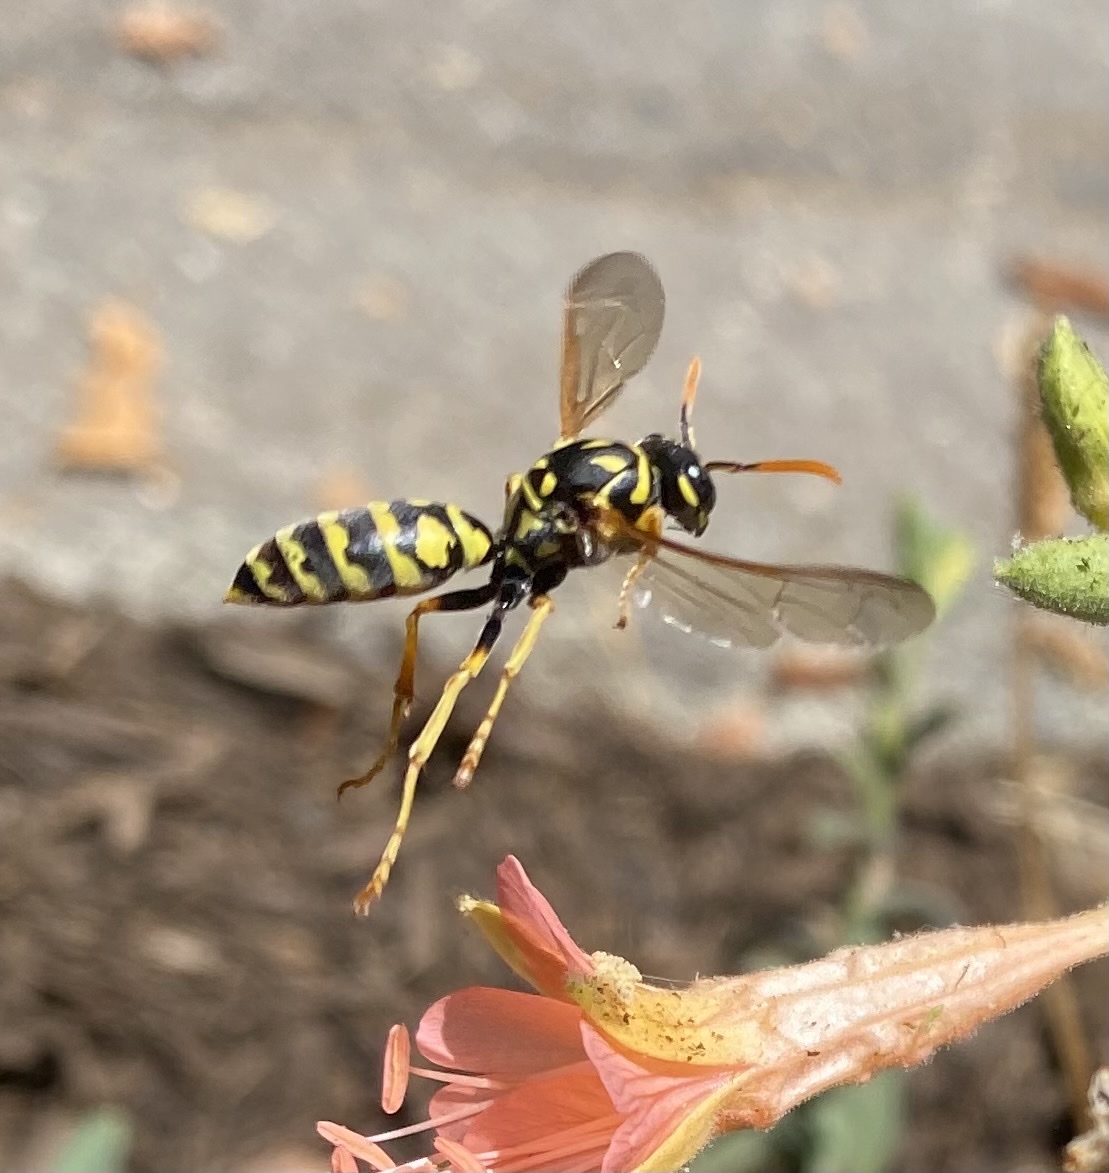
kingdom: Animalia
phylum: Arthropoda
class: Insecta
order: Hymenoptera
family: Eumenidae
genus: Polistes
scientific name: Polistes dominula
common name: Paper wasp
